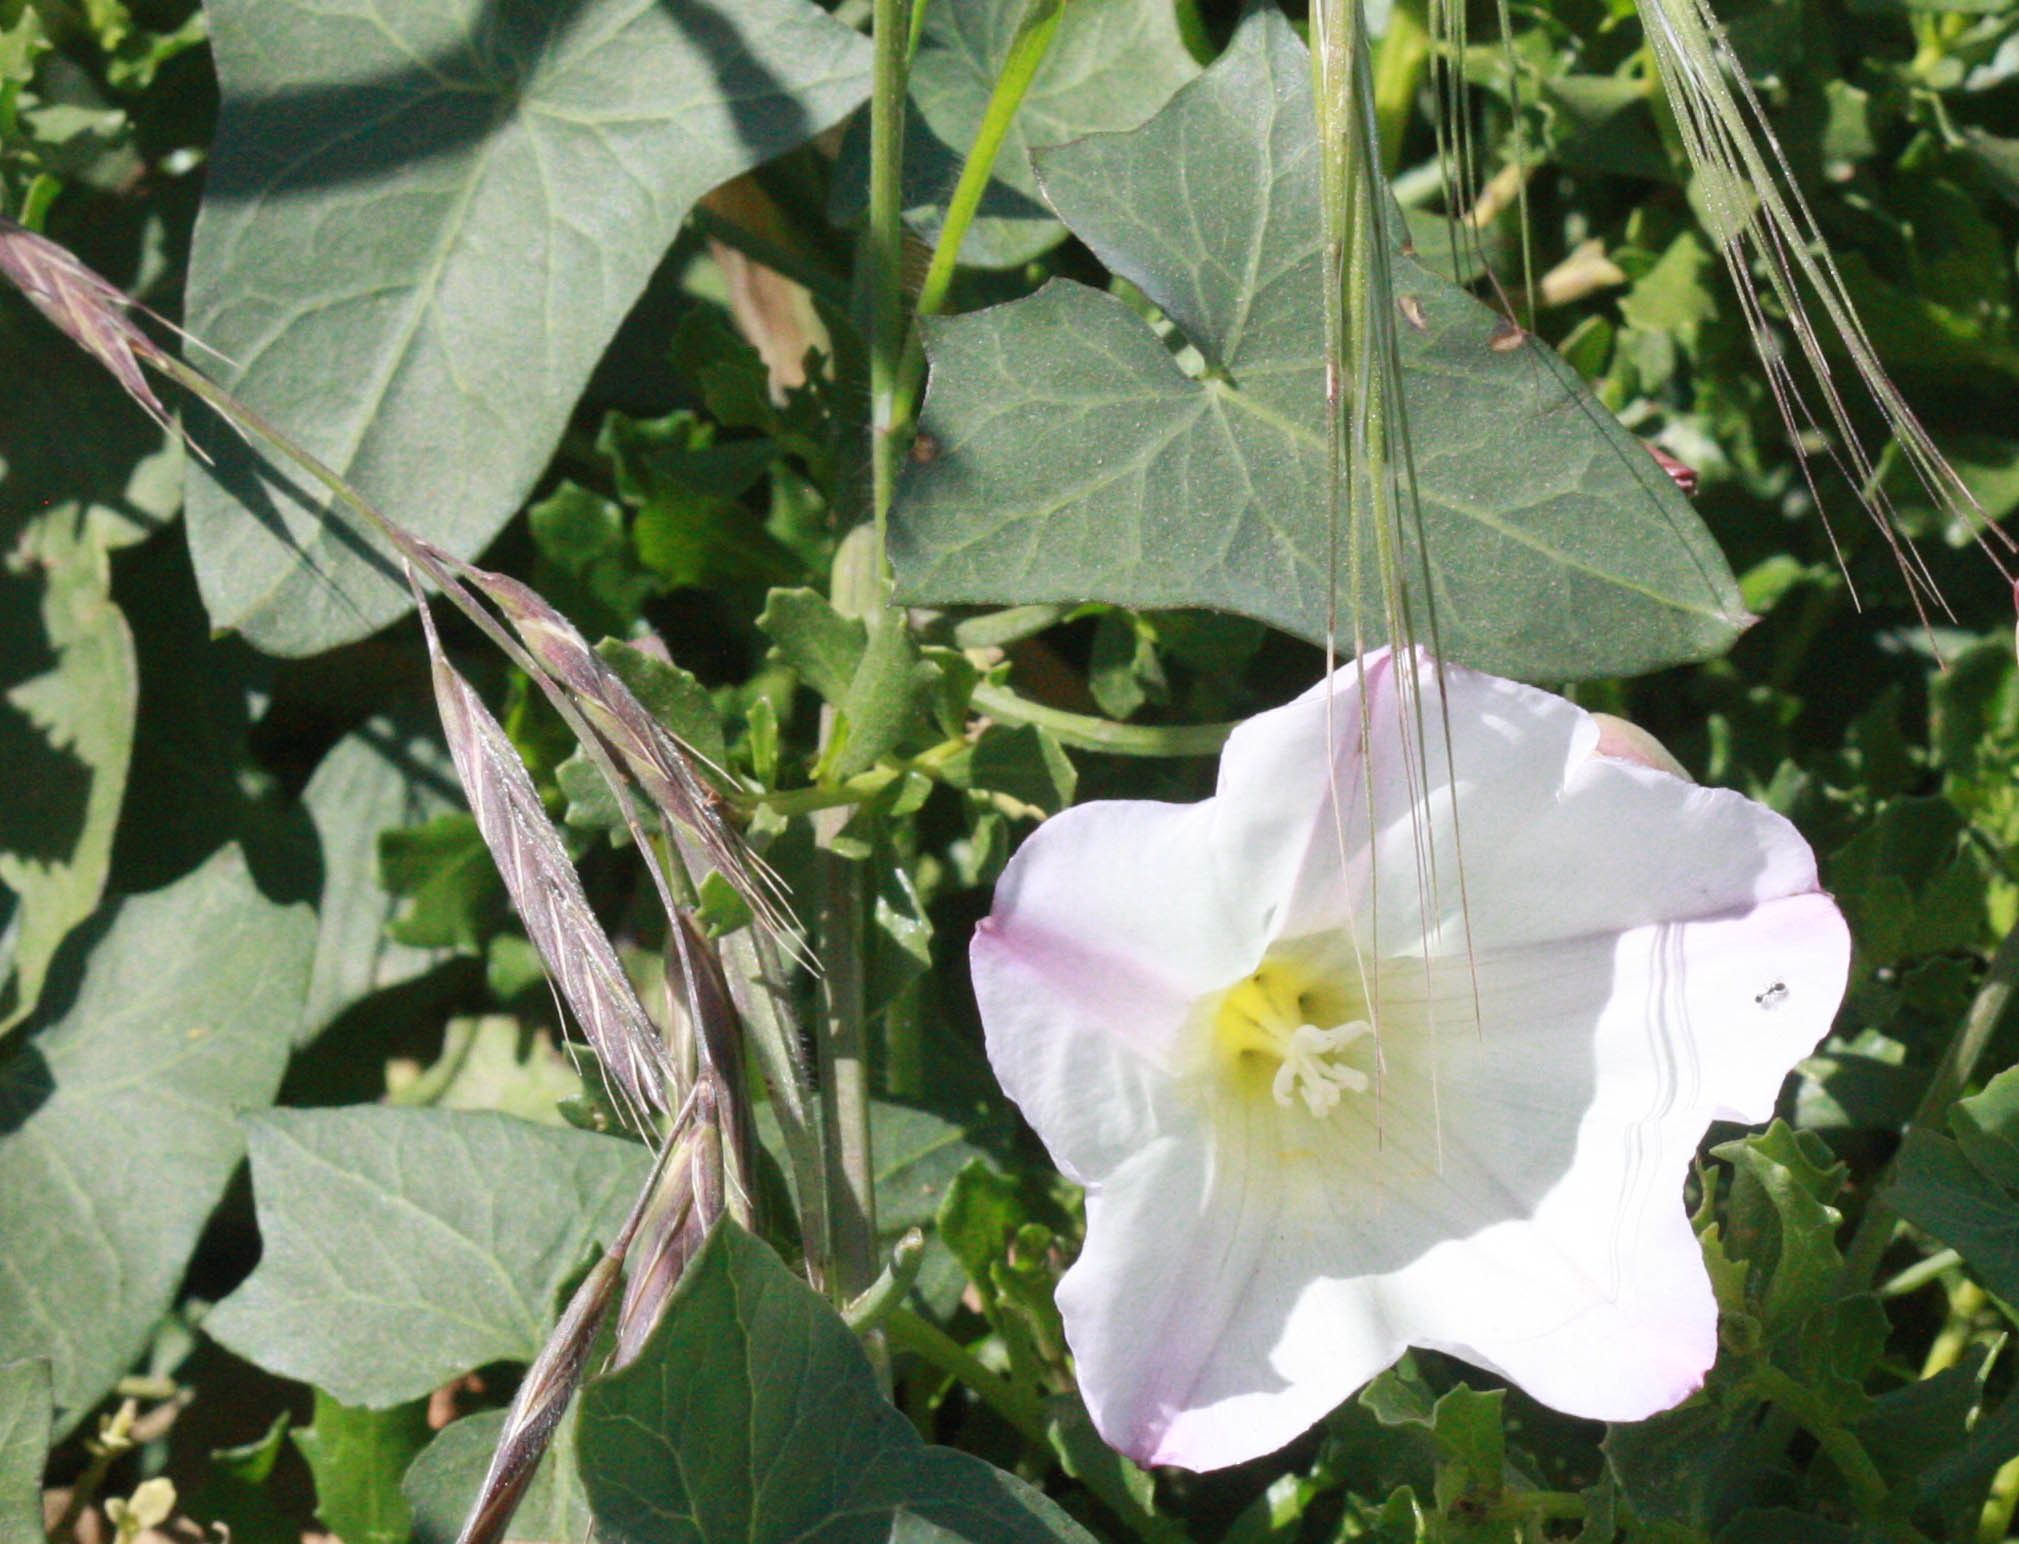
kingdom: Plantae
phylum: Tracheophyta
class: Magnoliopsida
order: Solanales
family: Convolvulaceae
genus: Calystegia
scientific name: Calystegia purpurata
